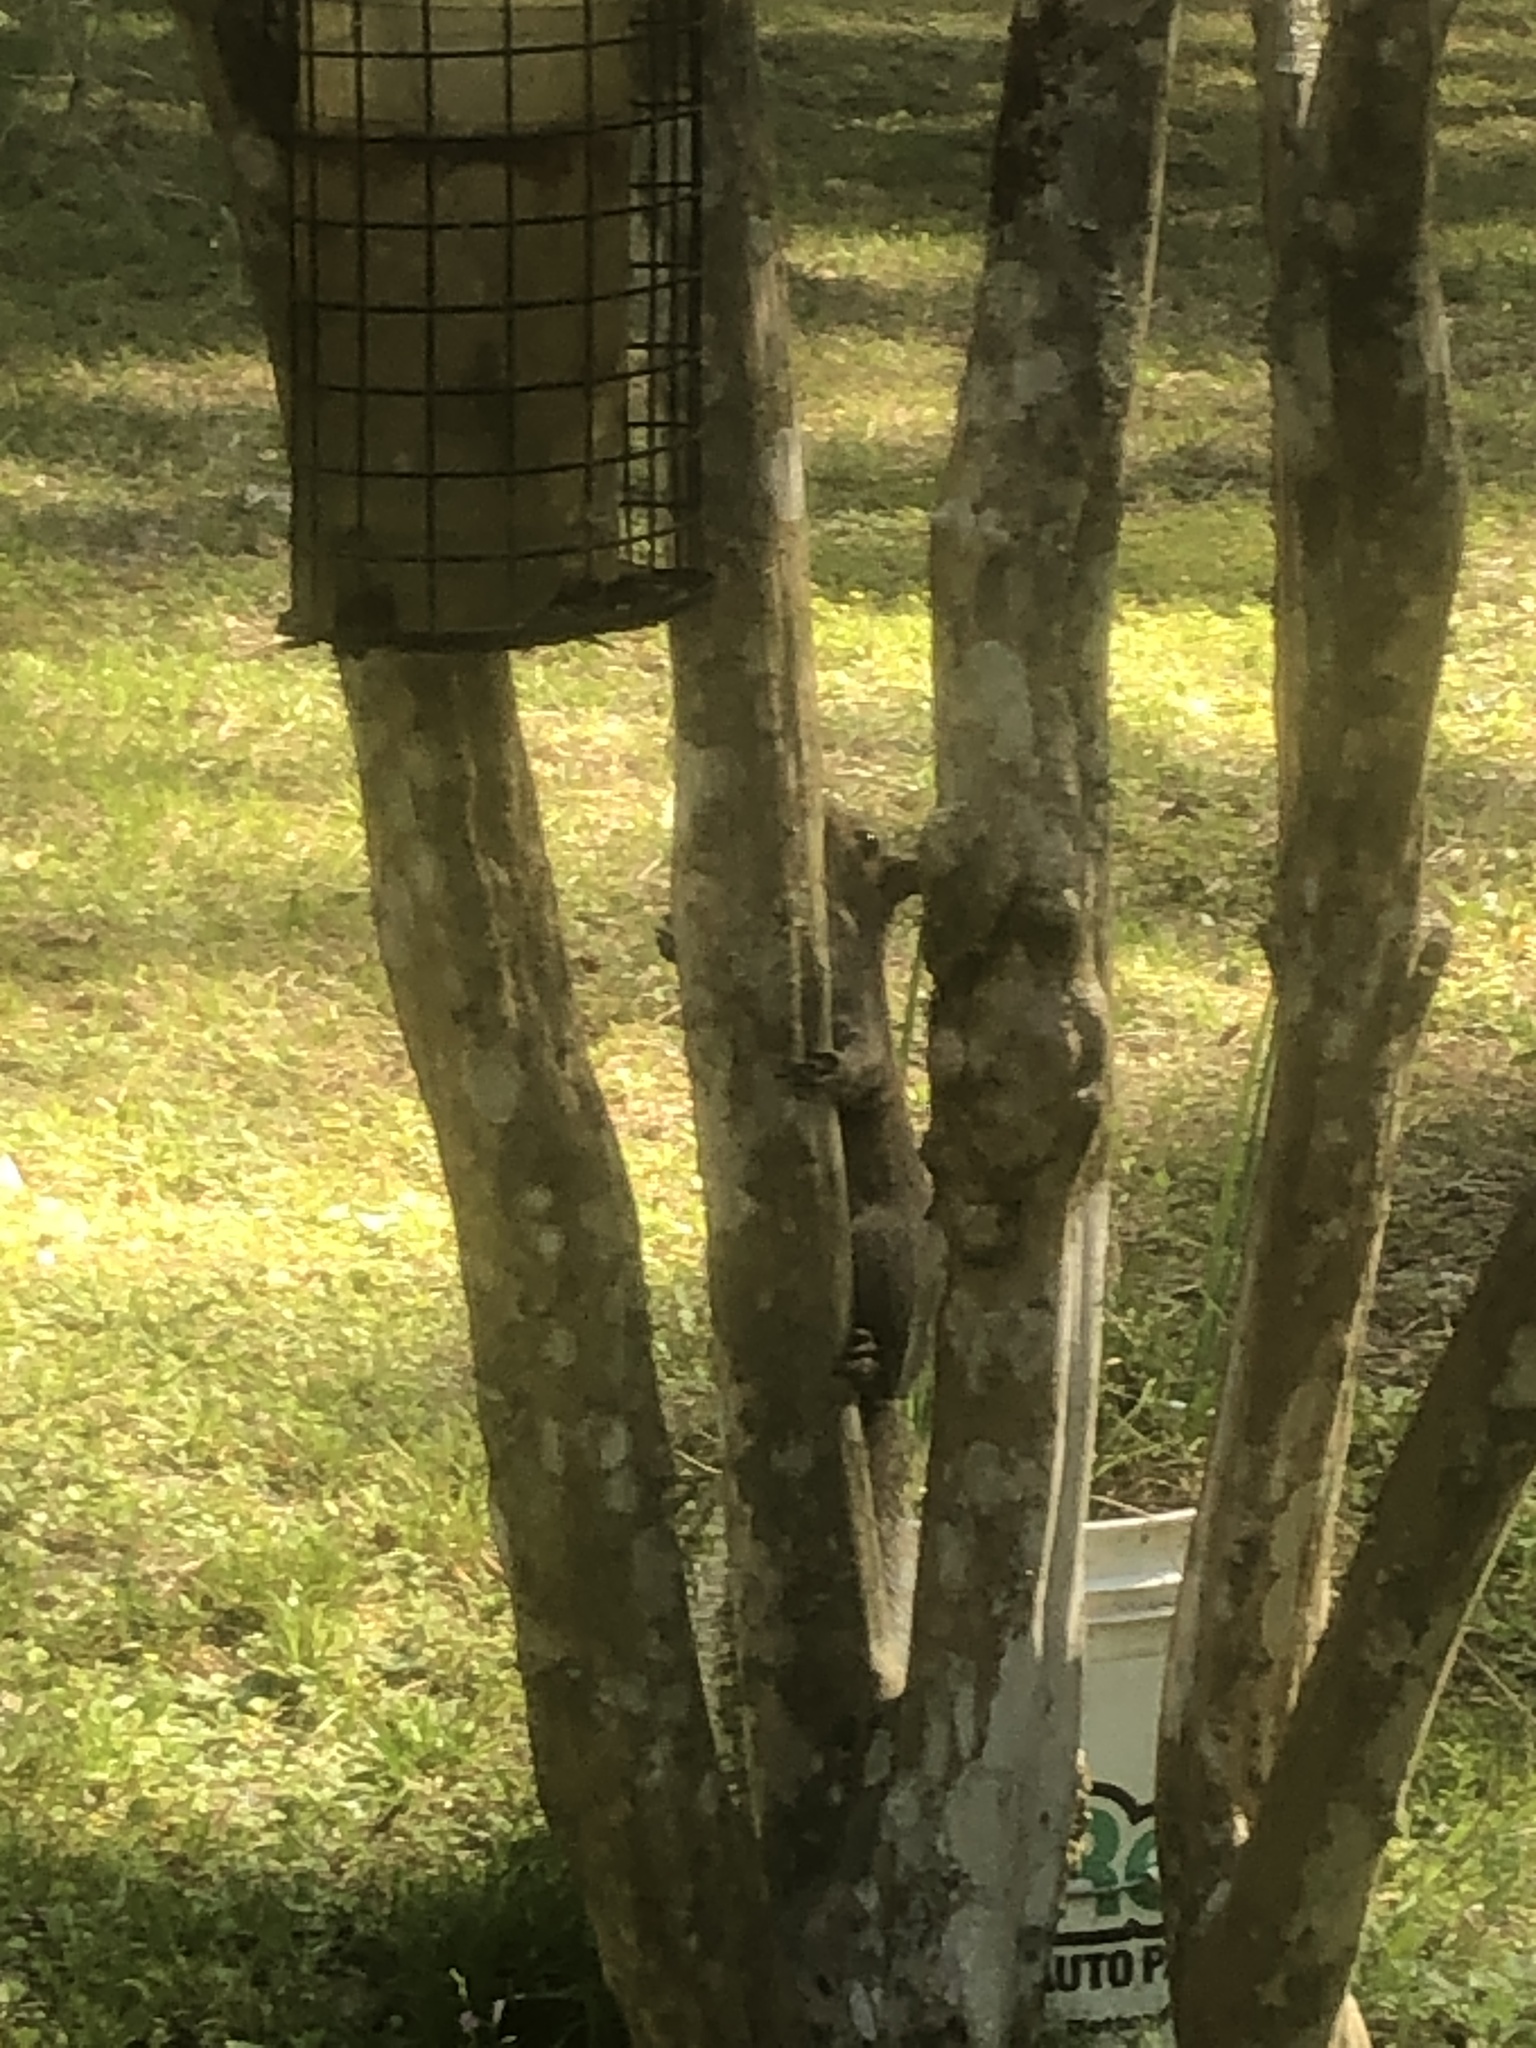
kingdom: Animalia
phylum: Chordata
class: Mammalia
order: Rodentia
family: Sciuridae
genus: Sciurus
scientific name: Sciurus carolinensis
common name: Eastern gray squirrel
